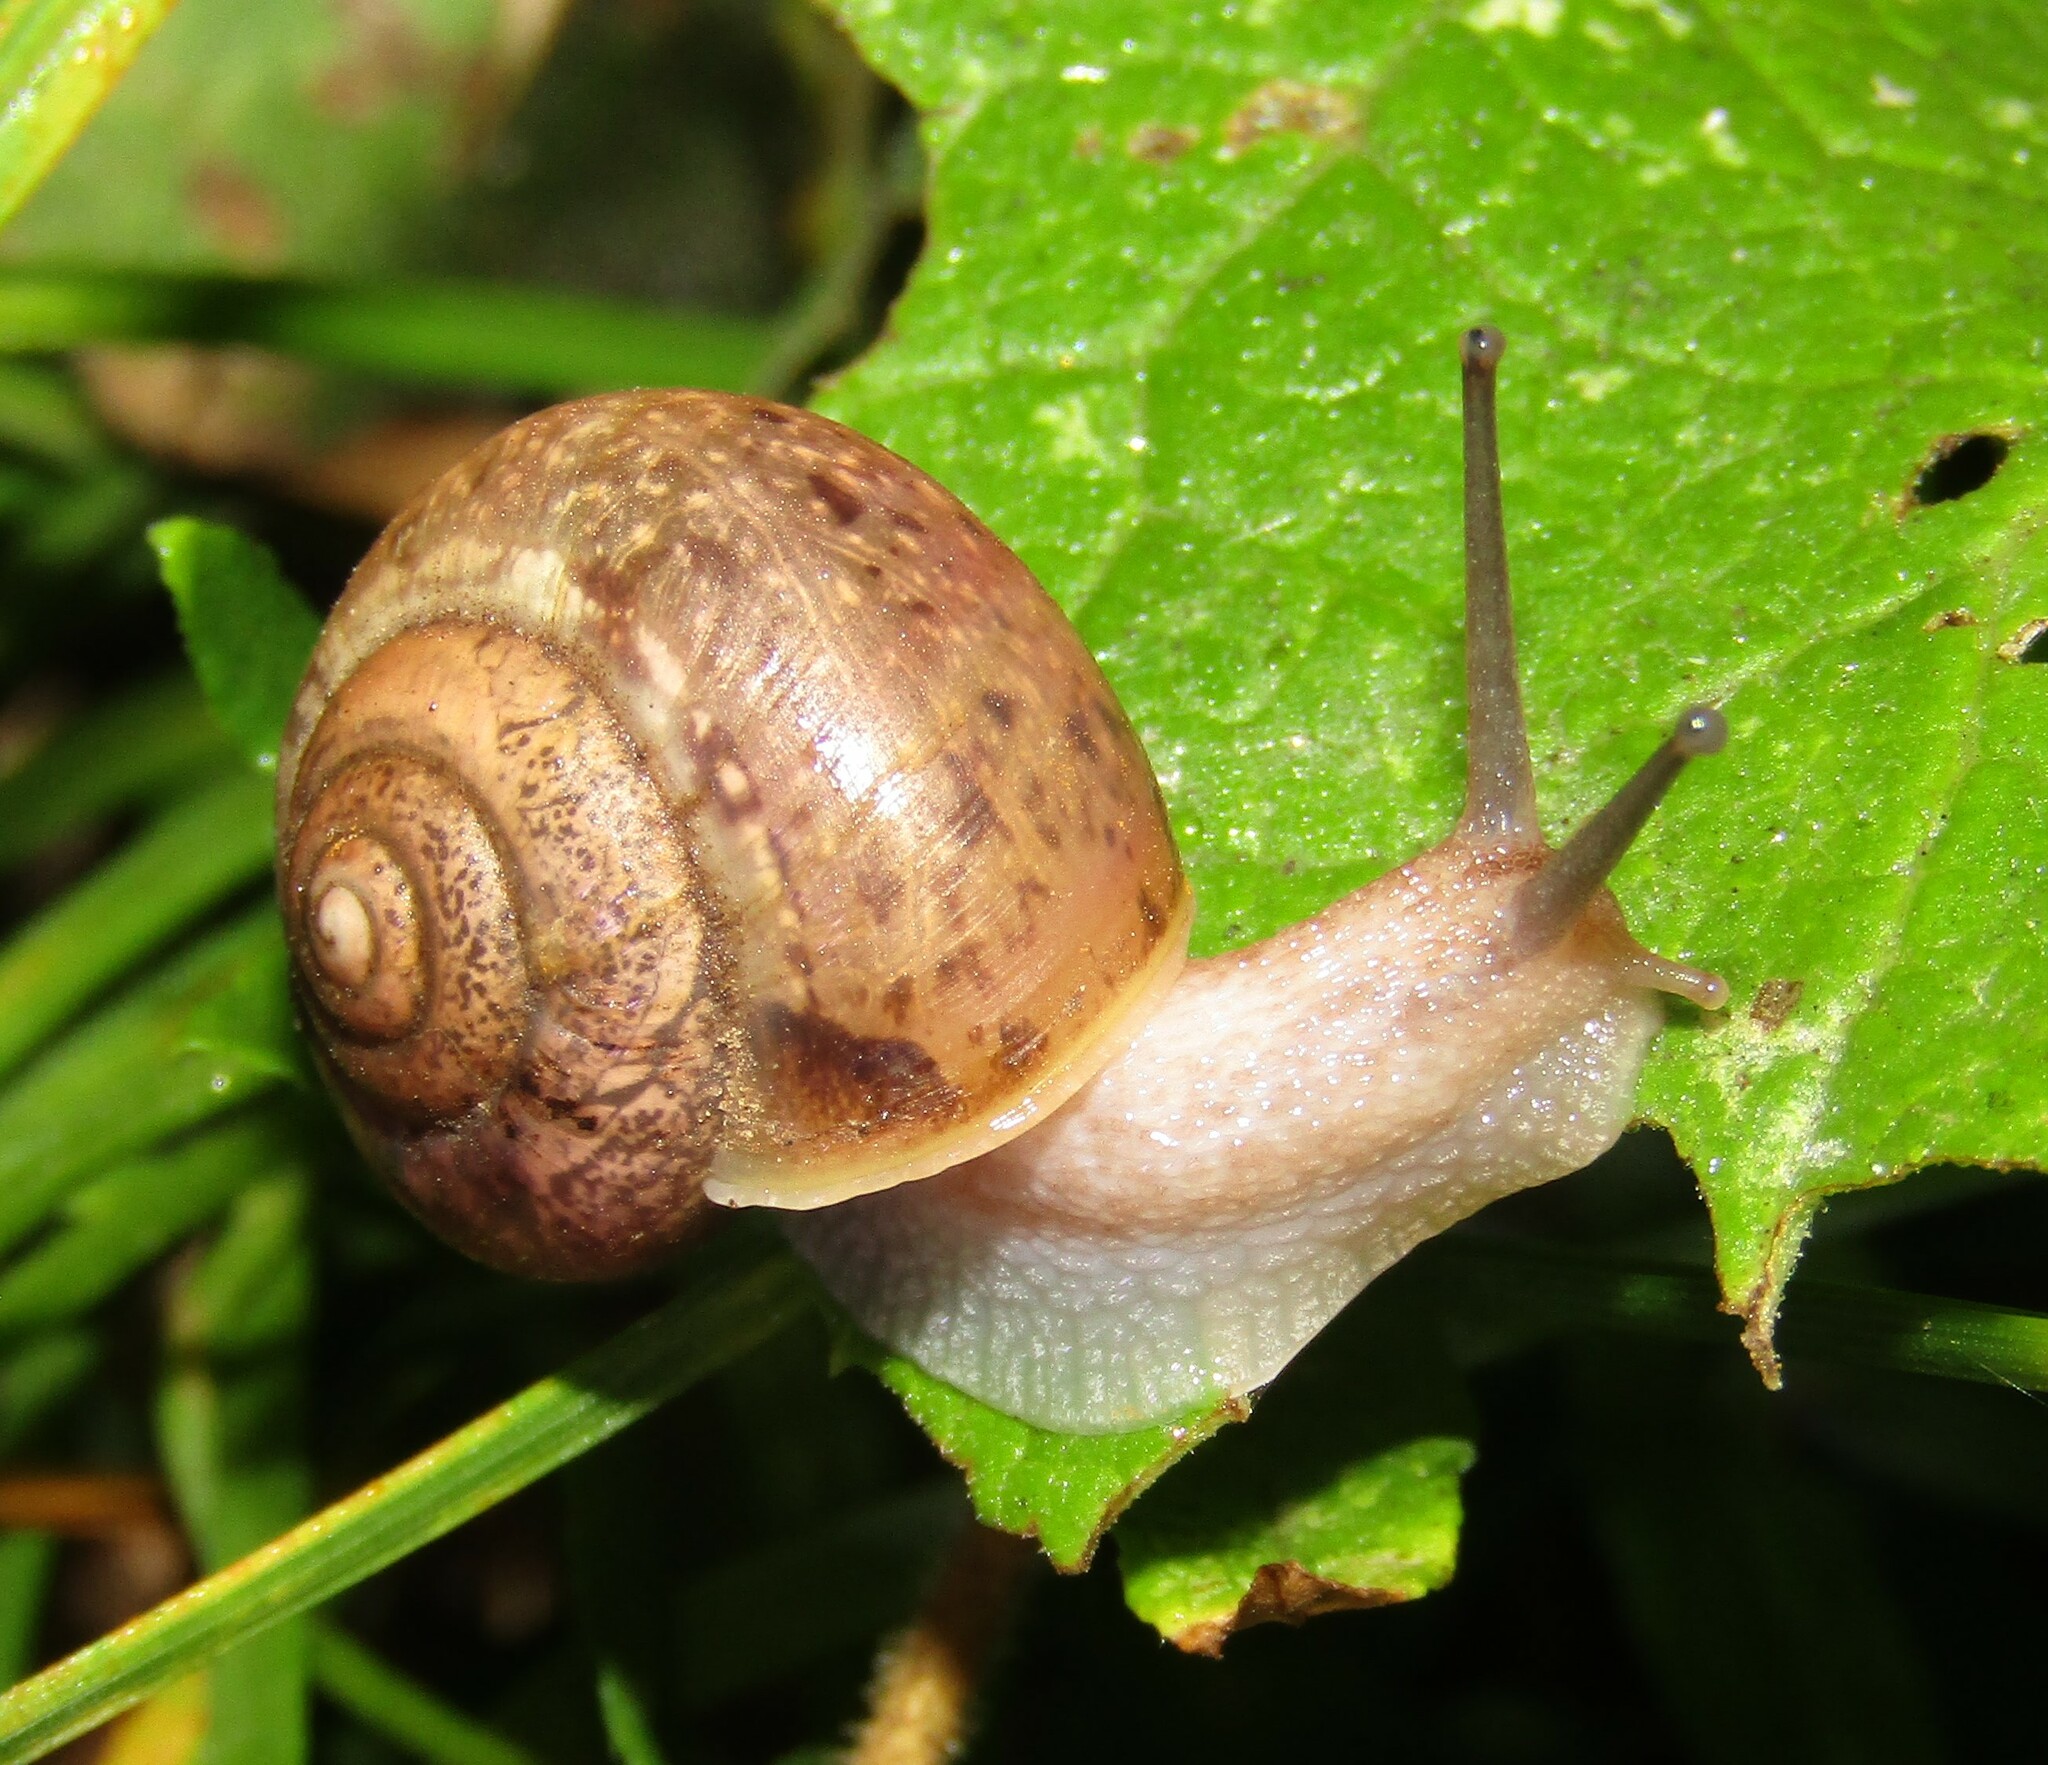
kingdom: Animalia
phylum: Mollusca
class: Gastropoda
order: Stylommatophora
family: Camaenidae
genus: Fruticicola
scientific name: Fruticicola fruticum
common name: Bush snail
